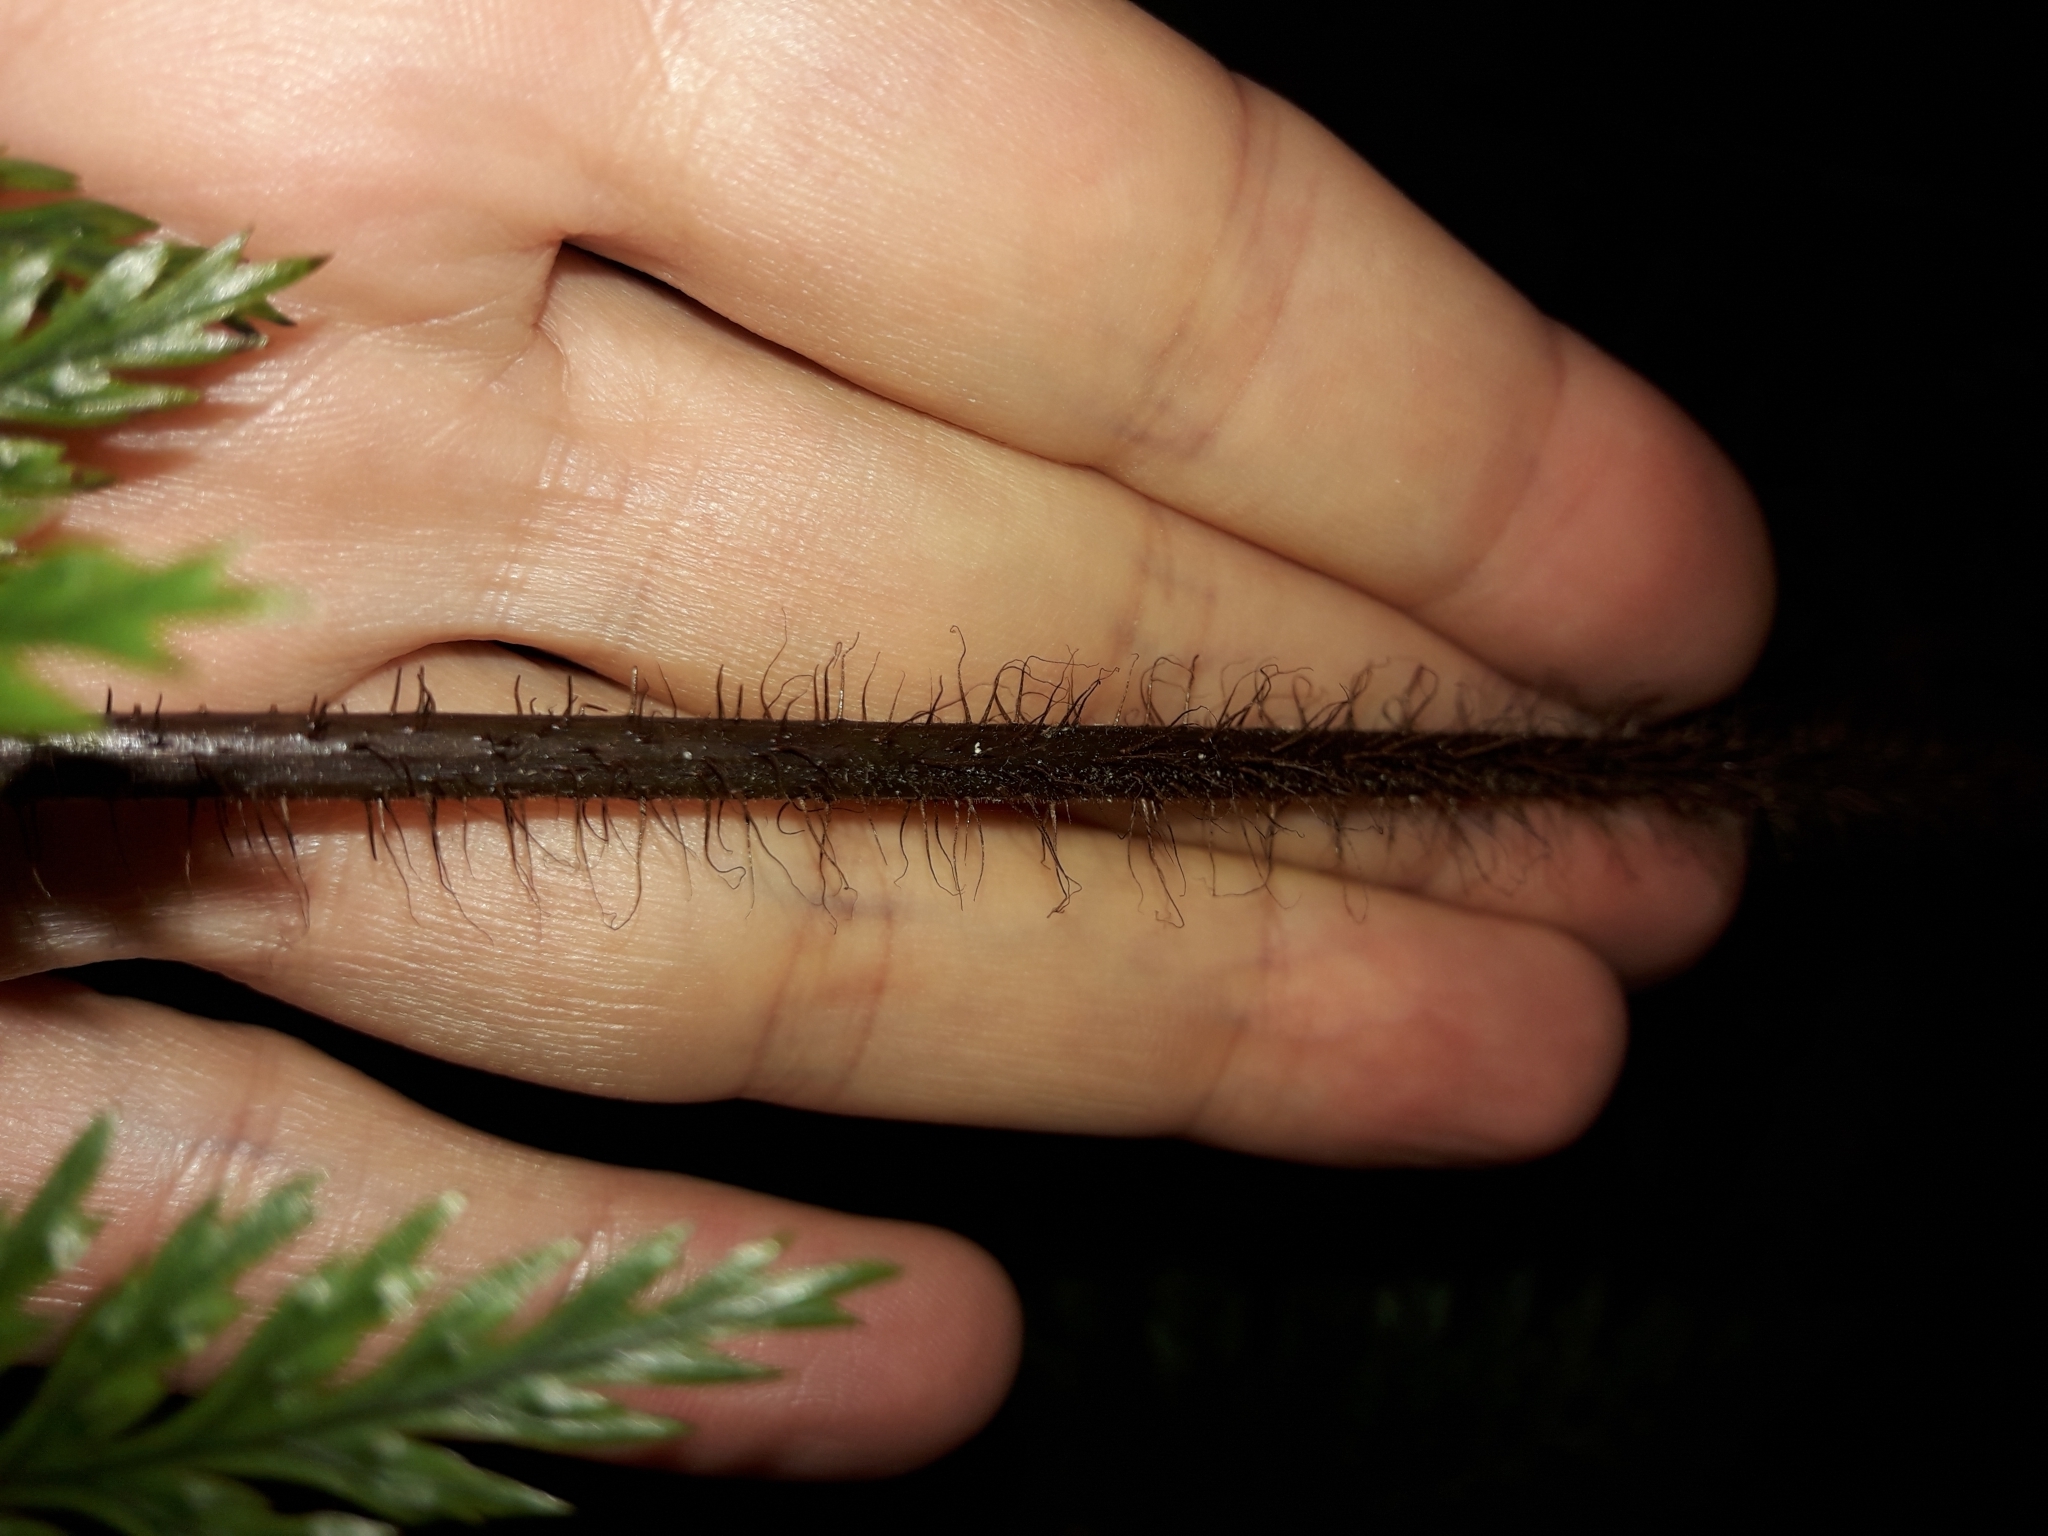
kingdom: Plantae
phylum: Tracheophyta
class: Polypodiopsida
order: Polypodiales
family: Dryopteridaceae
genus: Lastreopsis
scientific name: Lastreopsis hispida
